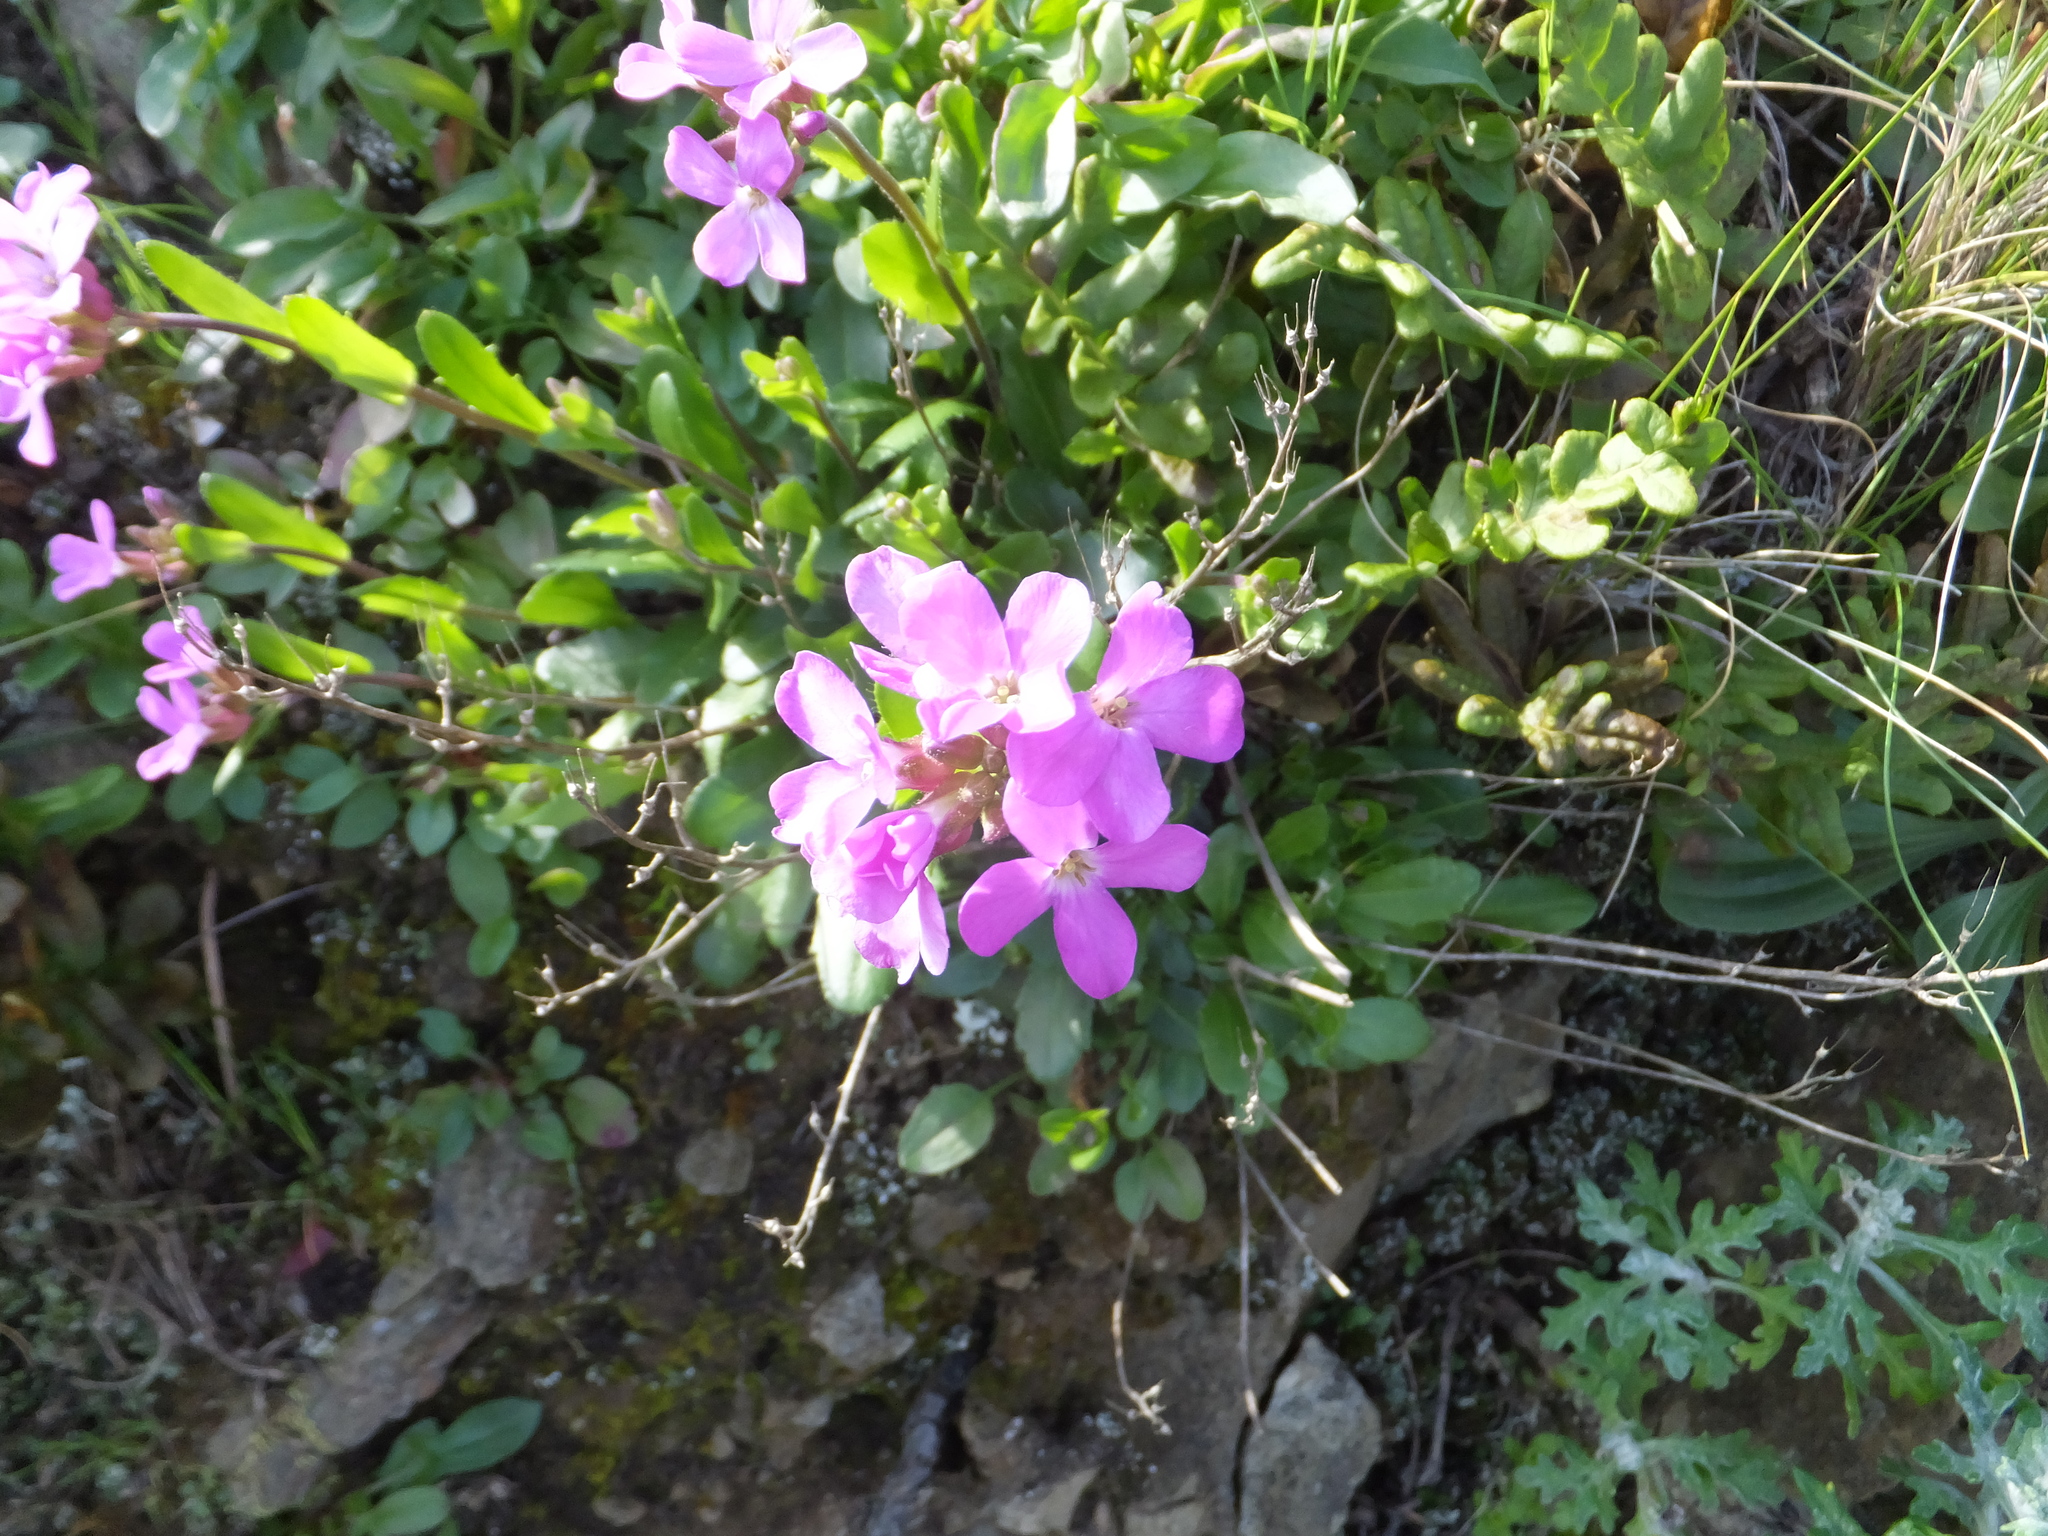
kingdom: Plantae
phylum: Tracheophyta
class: Magnoliopsida
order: Brassicales
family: Brassicaceae
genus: Arabis
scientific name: Arabis blepharophylla
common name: Rose rockcress
